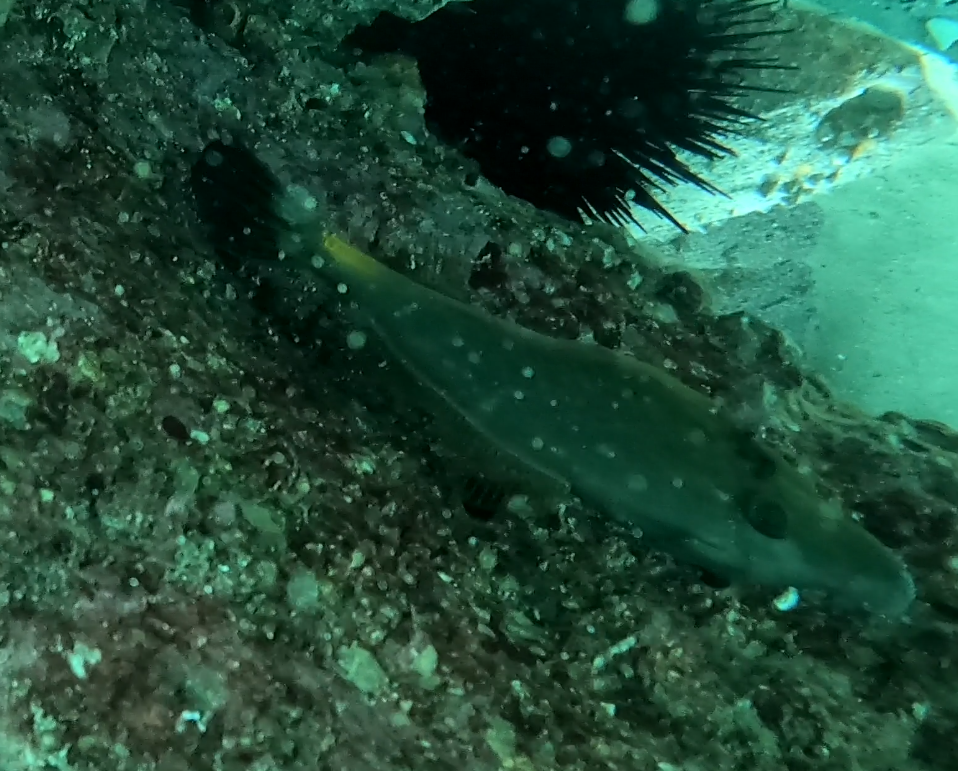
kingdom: Animalia
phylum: Chordata
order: Tetraodontiformes
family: Monacanthidae
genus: Meuschenia
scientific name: Meuschenia flavolineata
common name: Yellowstriped leatherjacket
